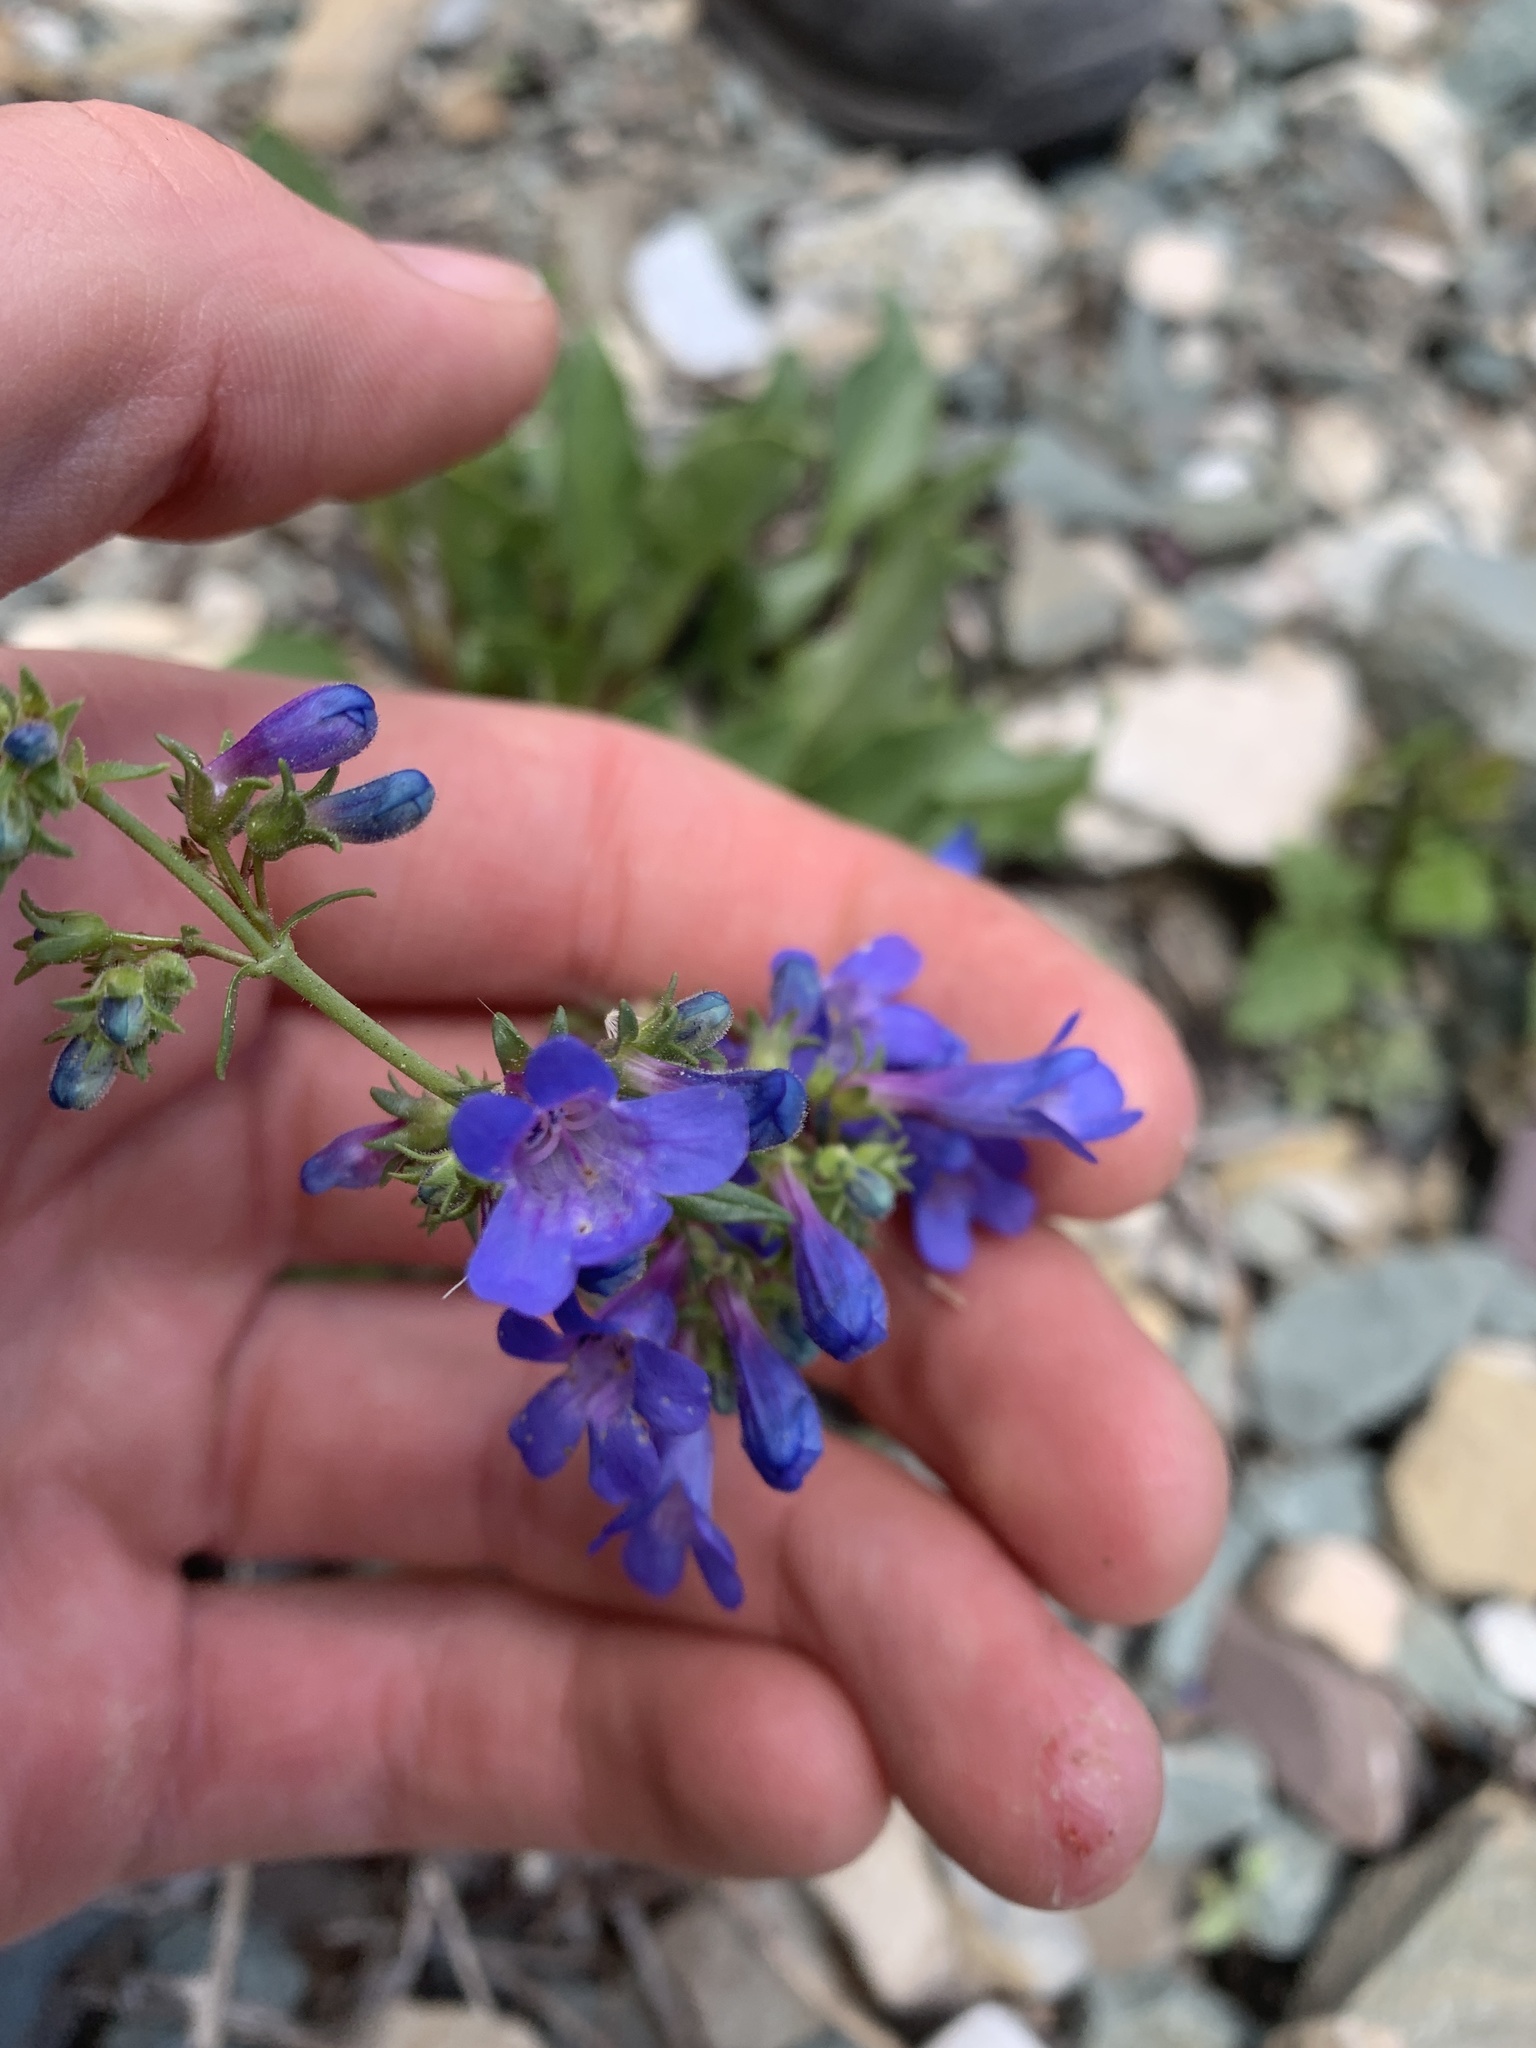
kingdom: Plantae
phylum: Tracheophyta
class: Magnoliopsida
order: Lamiales
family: Plantaginaceae
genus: Penstemon
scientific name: Penstemon albertinus
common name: Alberta beardtongue
